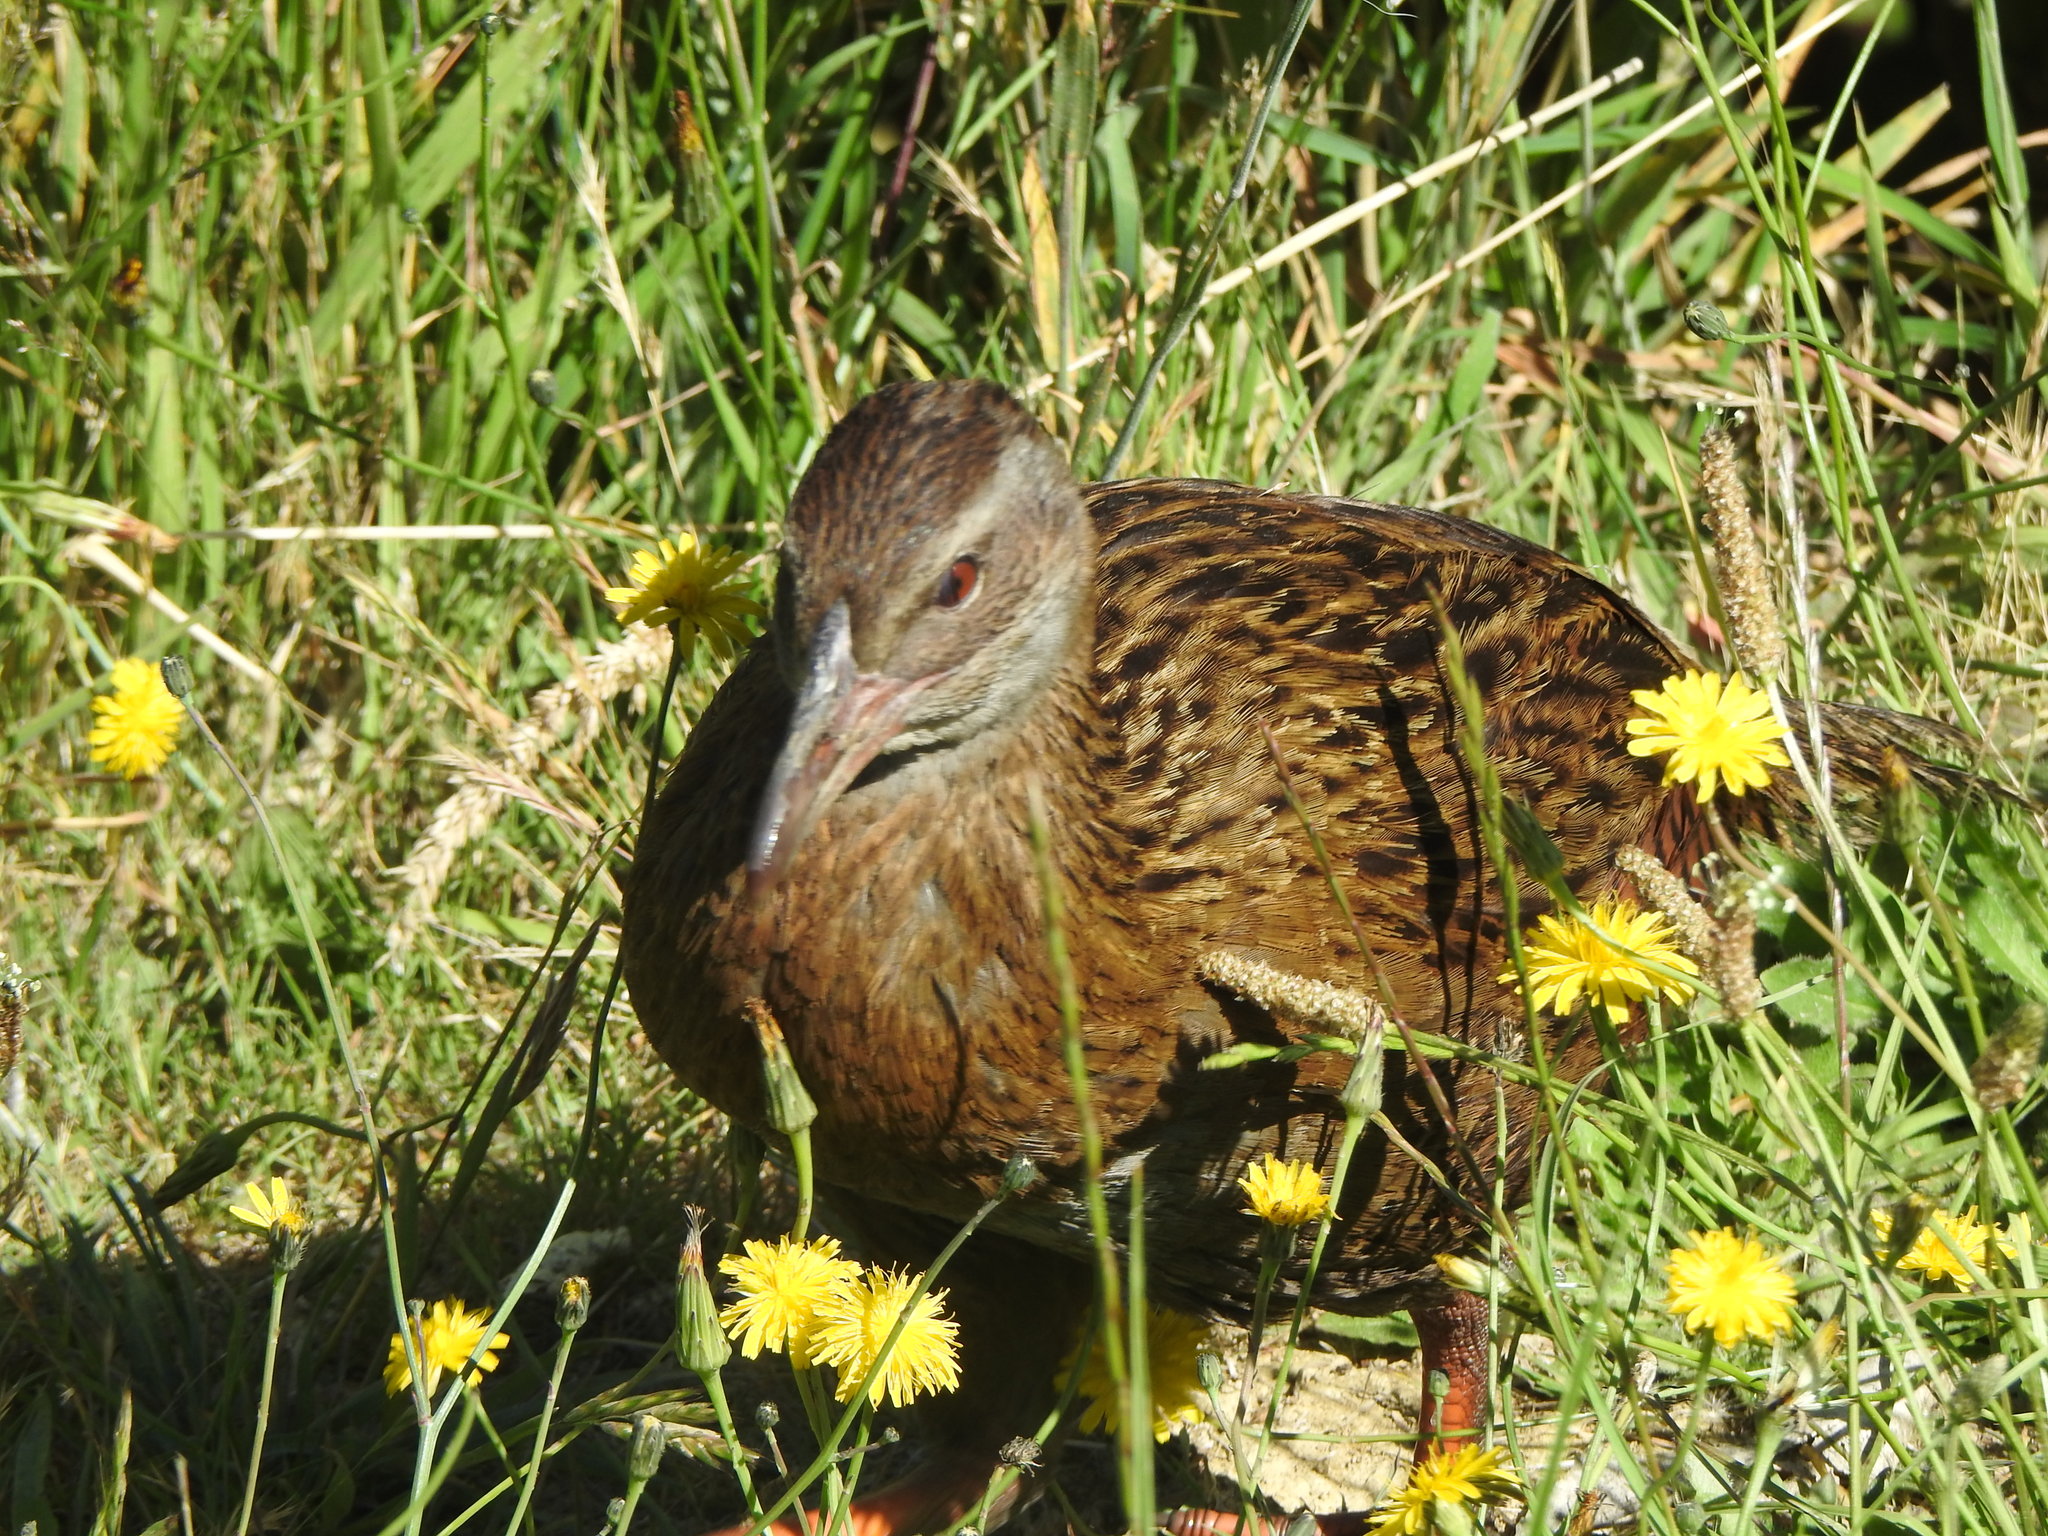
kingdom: Animalia
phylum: Chordata
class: Aves
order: Gruiformes
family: Rallidae
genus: Gallirallus
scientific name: Gallirallus australis
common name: Weka
